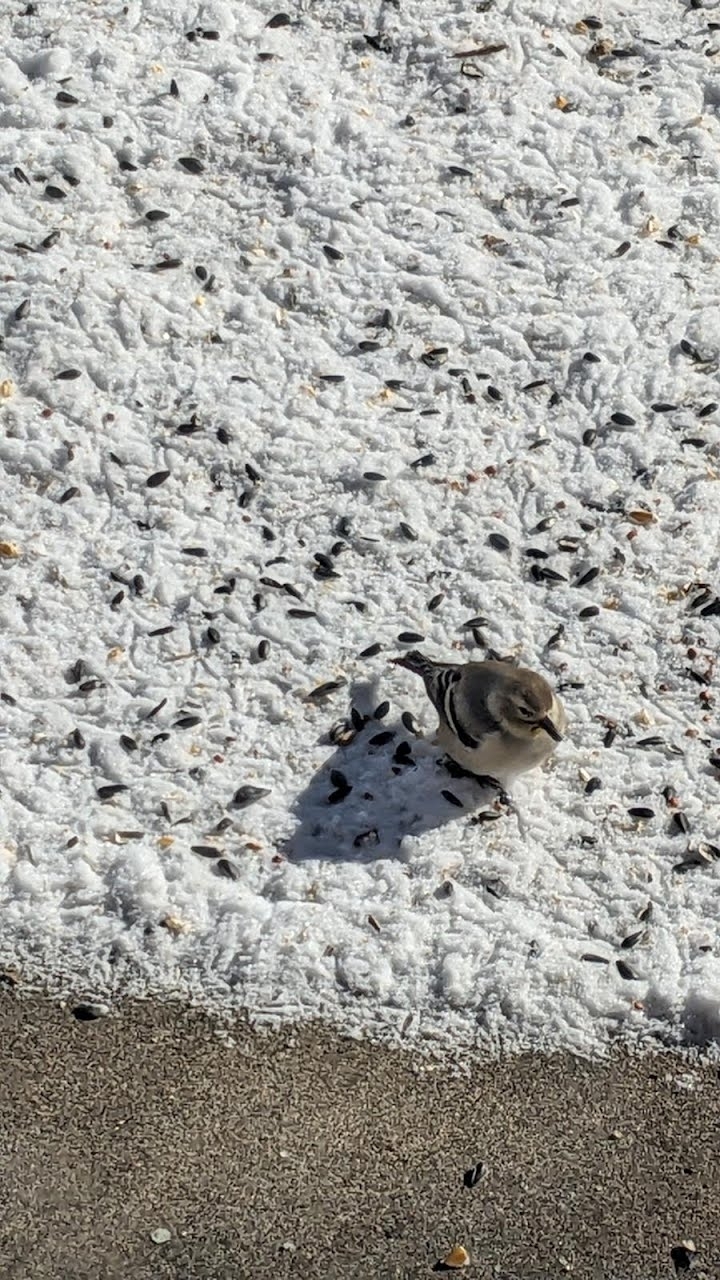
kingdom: Animalia
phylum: Chordata
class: Aves
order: Passeriformes
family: Fringillidae
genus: Spinus
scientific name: Spinus tristis
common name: American goldfinch
